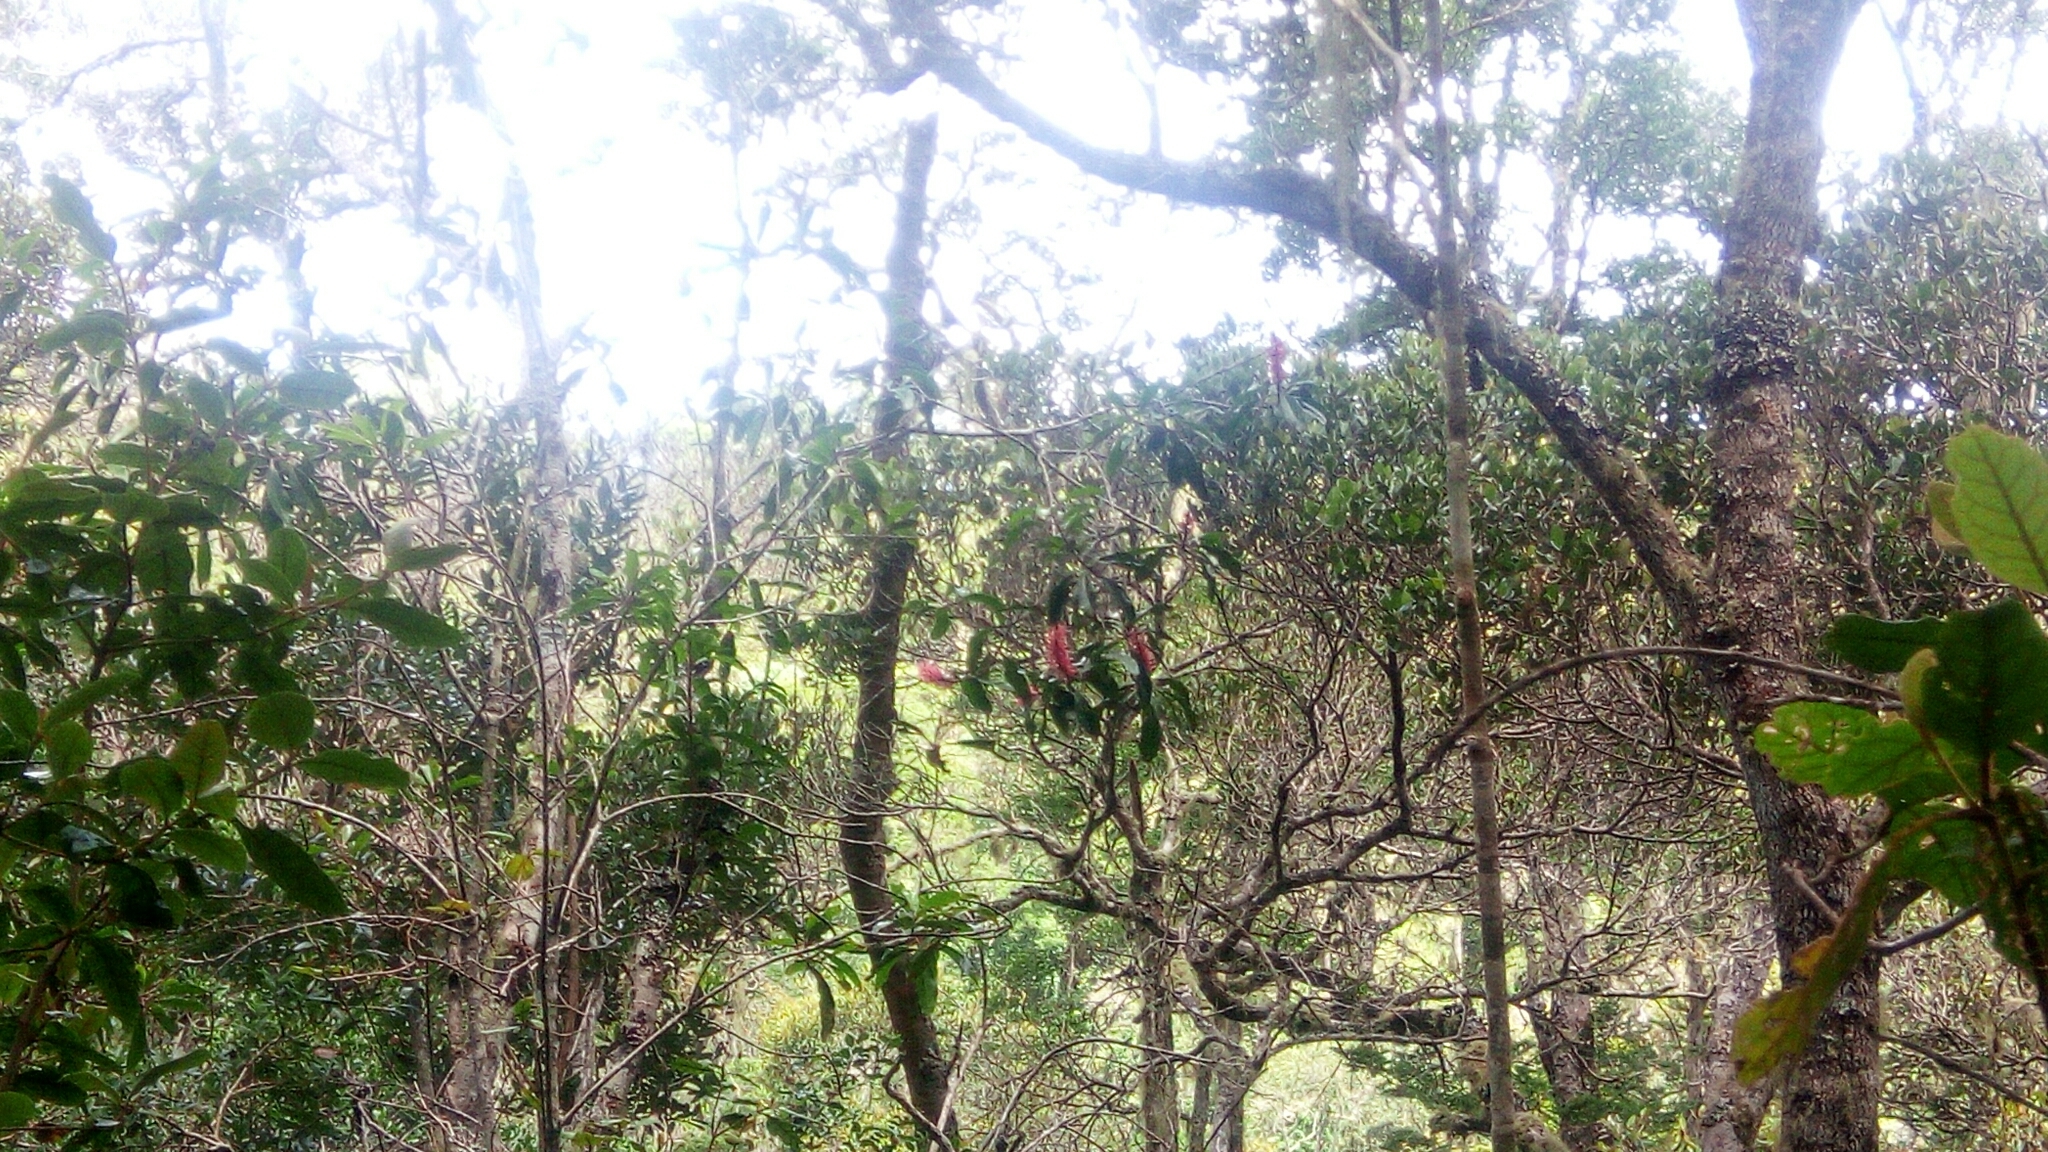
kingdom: Plantae
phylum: Tracheophyta
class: Magnoliopsida
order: Proteales
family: Proteaceae
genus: Faurea
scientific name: Faurea forficuliflora
